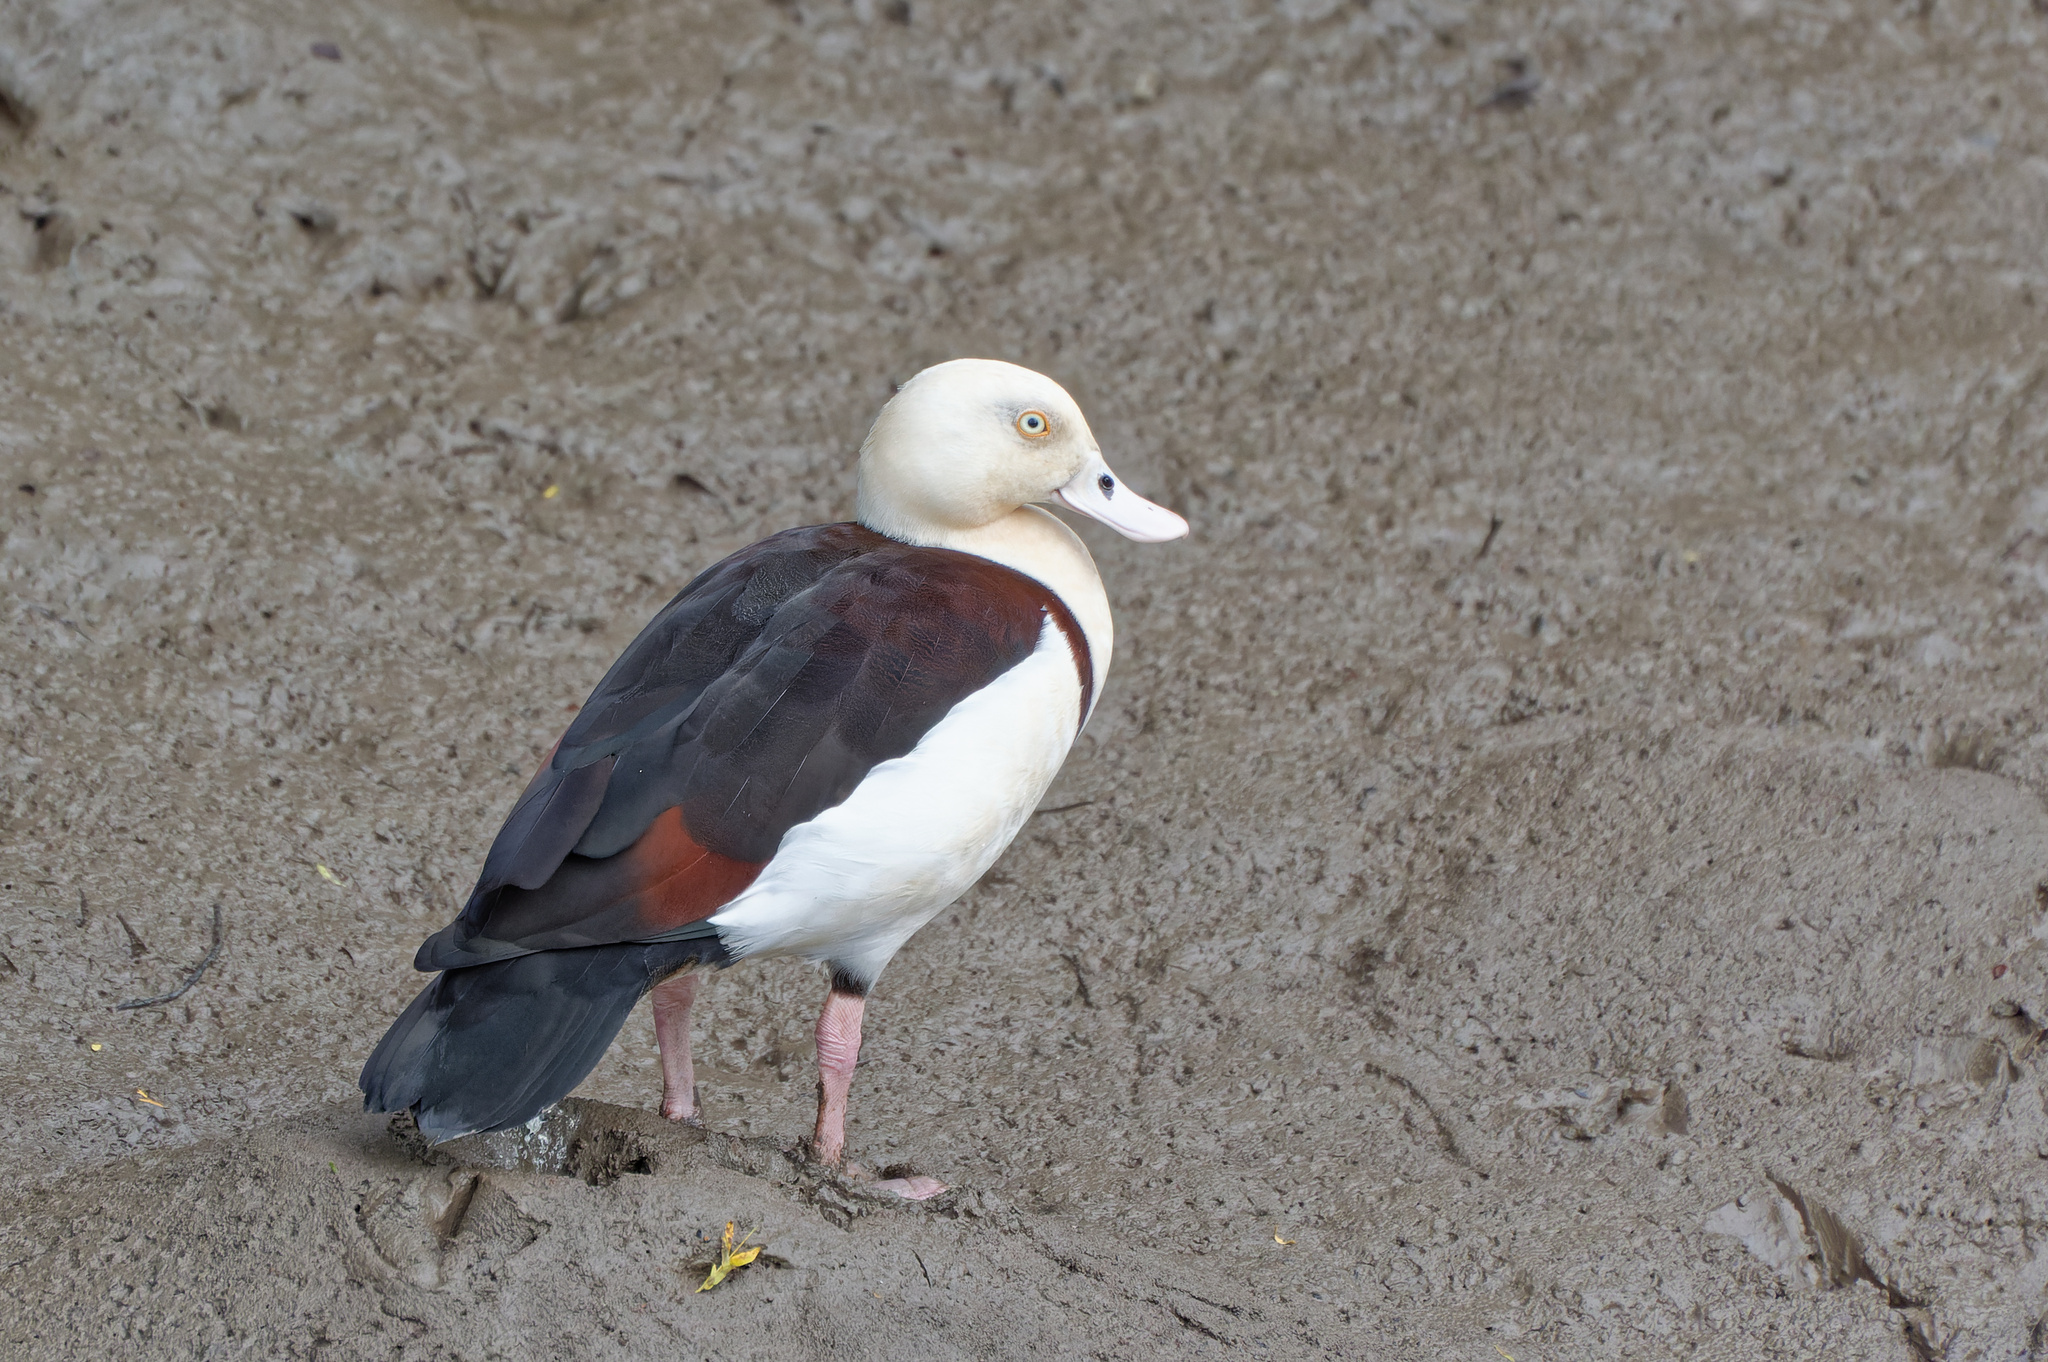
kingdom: Animalia
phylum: Chordata
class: Aves
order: Anseriformes
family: Anatidae
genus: Radjah
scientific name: Radjah radjah
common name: Radjah shelduck
